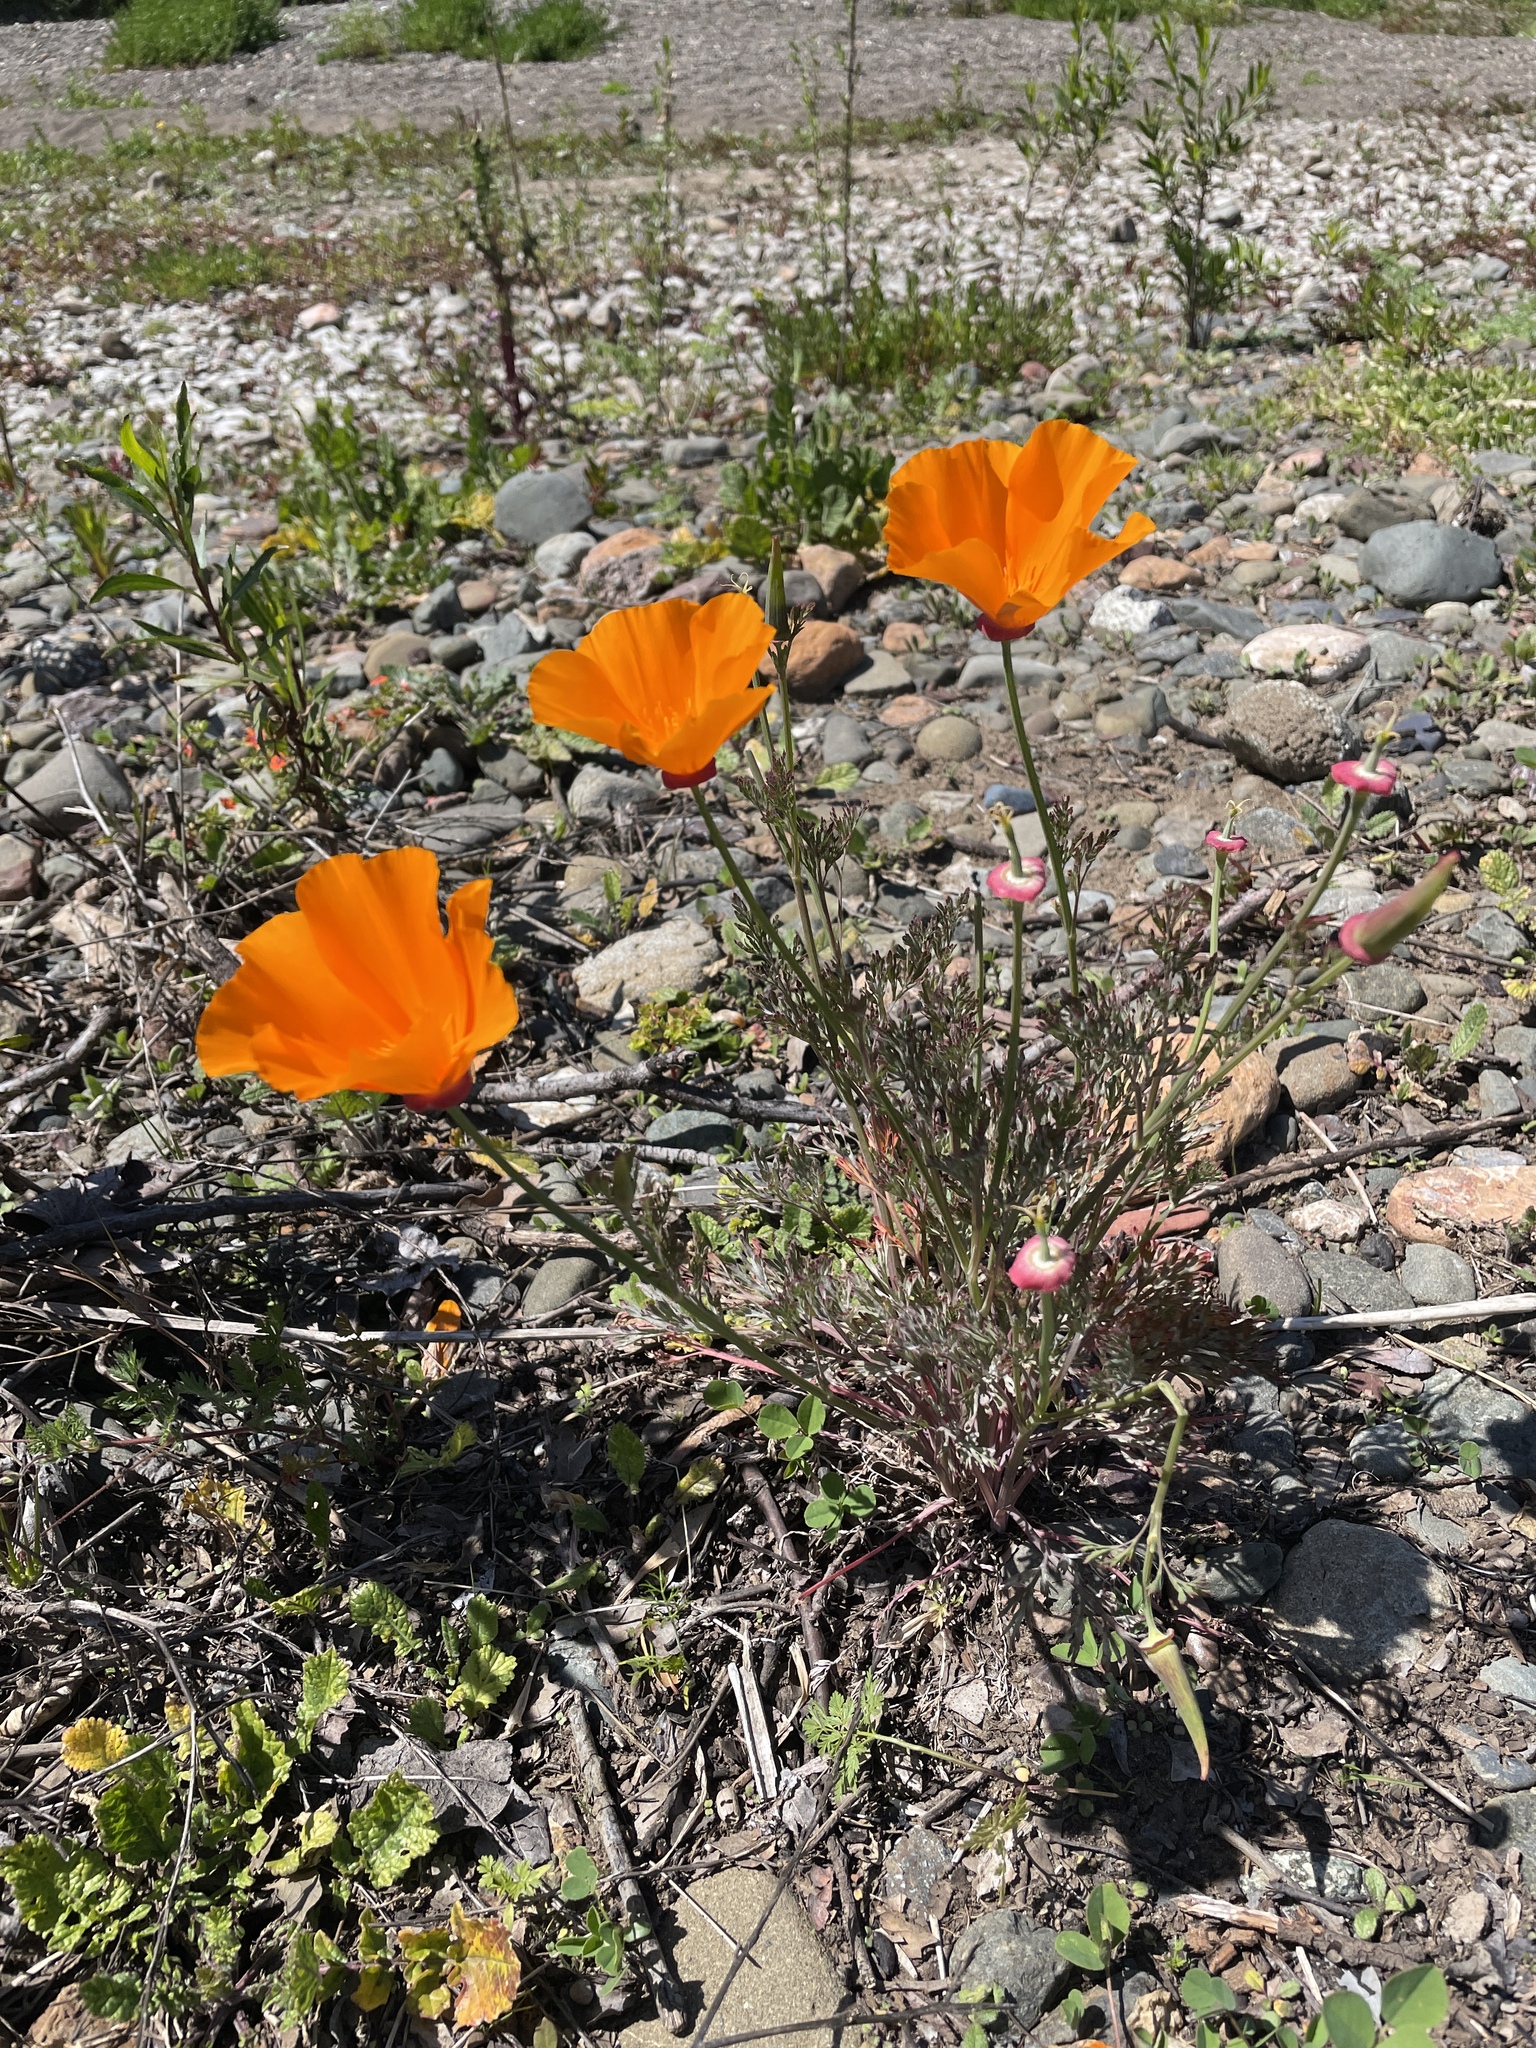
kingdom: Plantae
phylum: Tracheophyta
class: Magnoliopsida
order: Ranunculales
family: Papaveraceae
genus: Eschscholzia
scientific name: Eschscholzia californica
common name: California poppy
